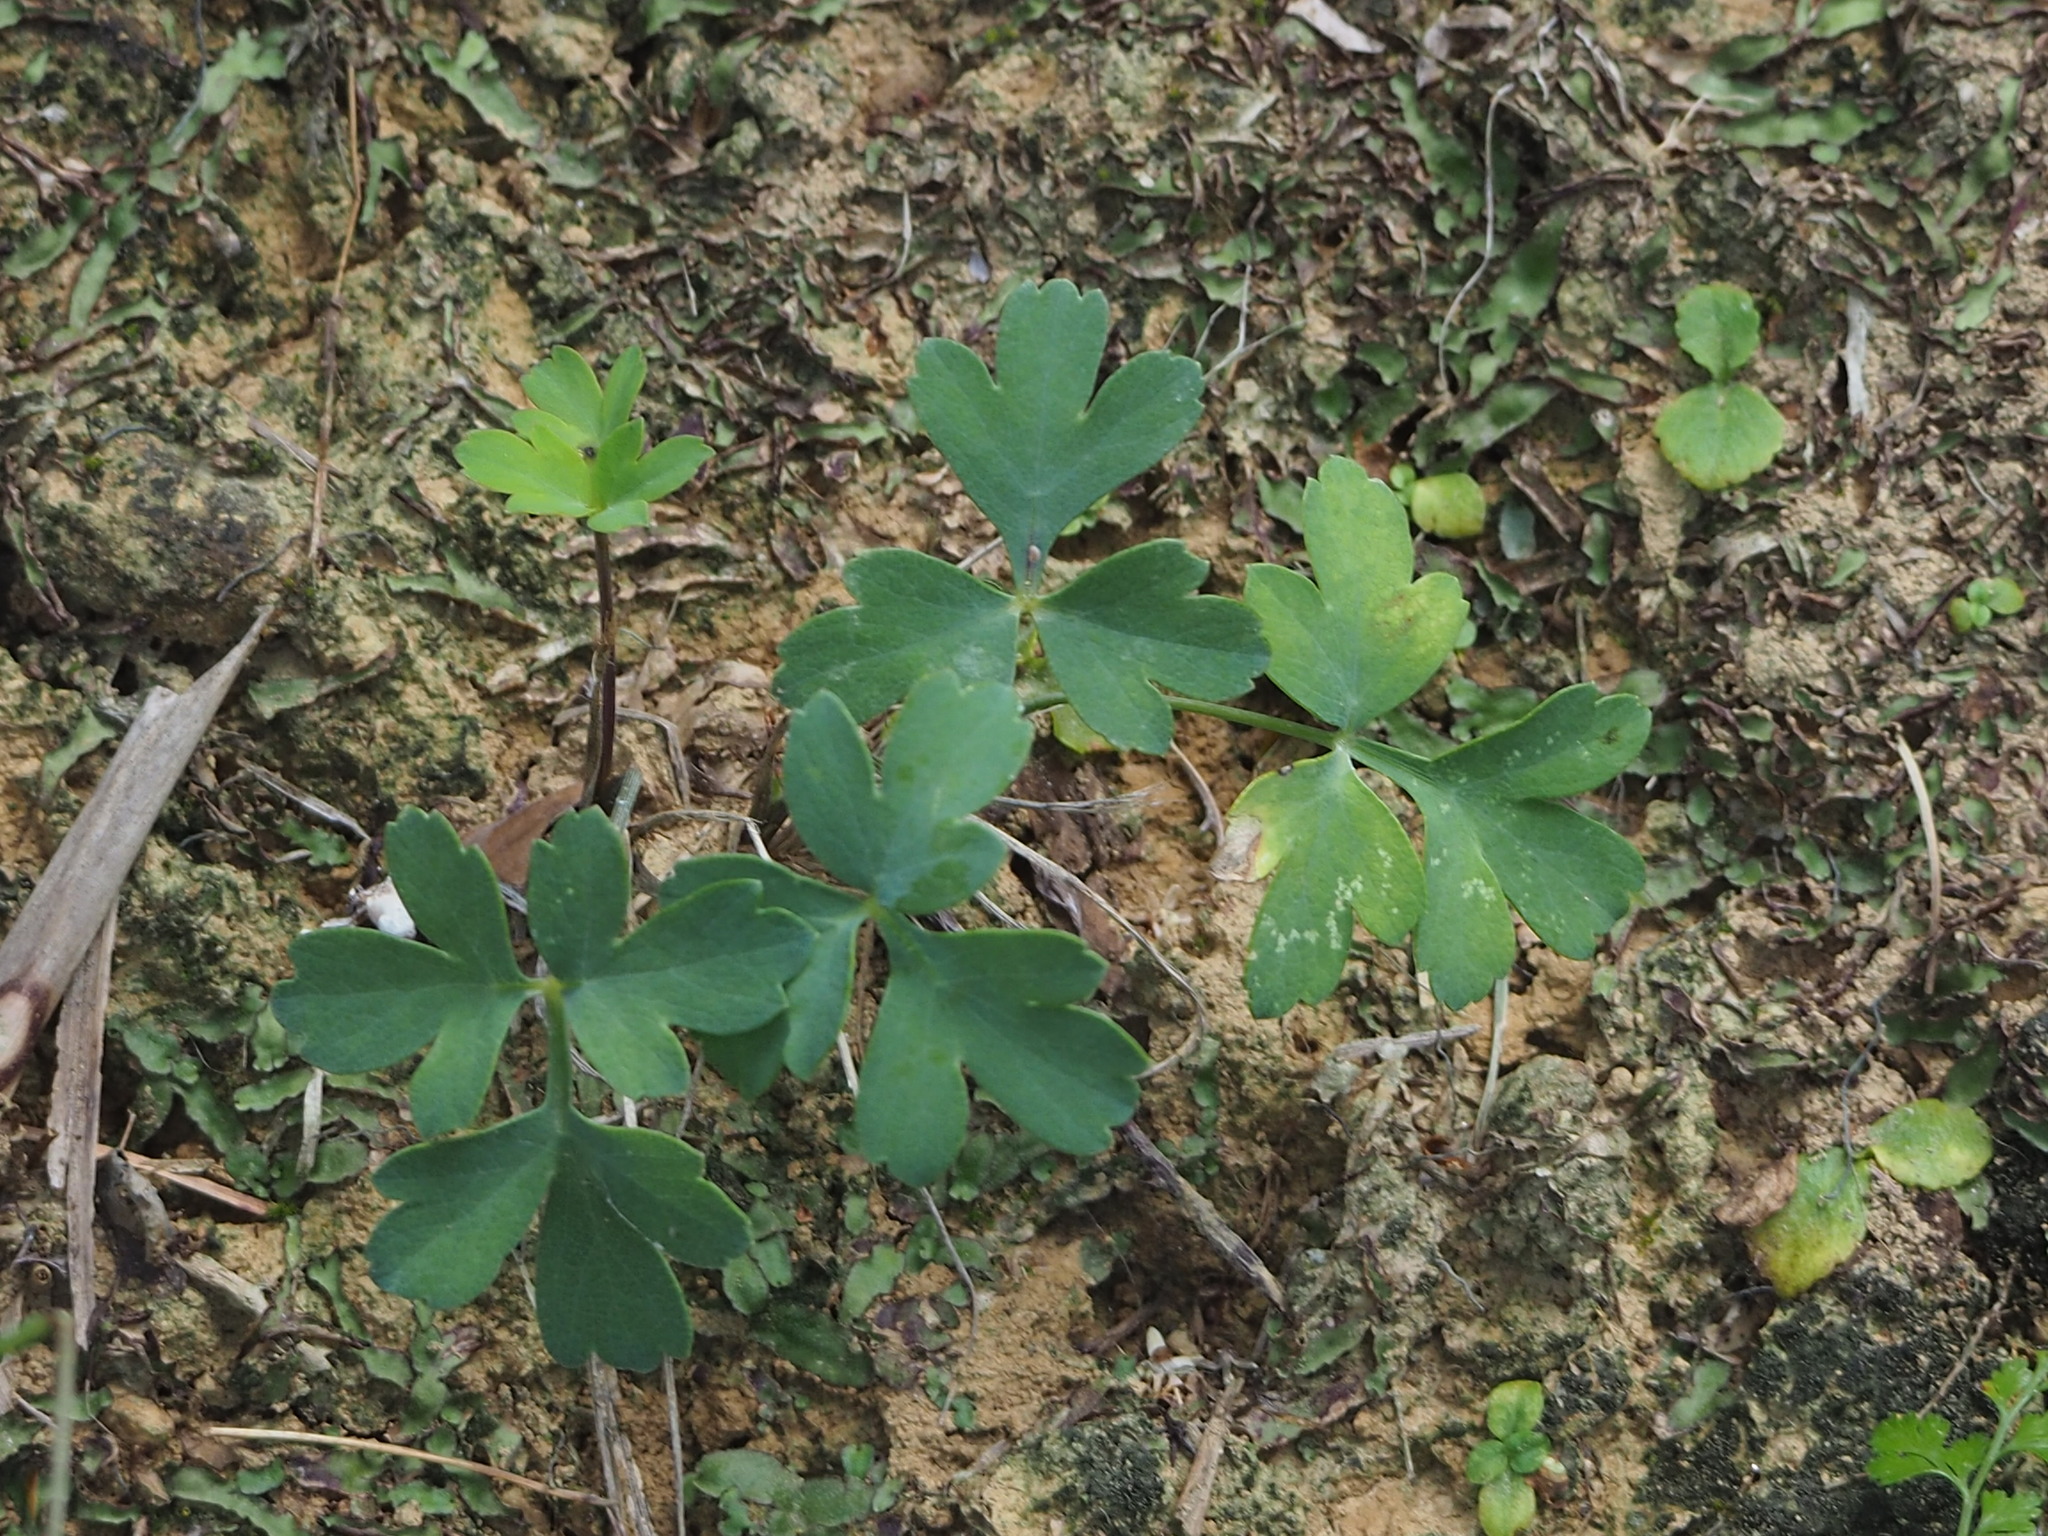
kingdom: Plantae
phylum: Tracheophyta
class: Magnoliopsida
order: Apiales
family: Apiaceae
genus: Peucedanum
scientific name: Peucedanum japonicum
